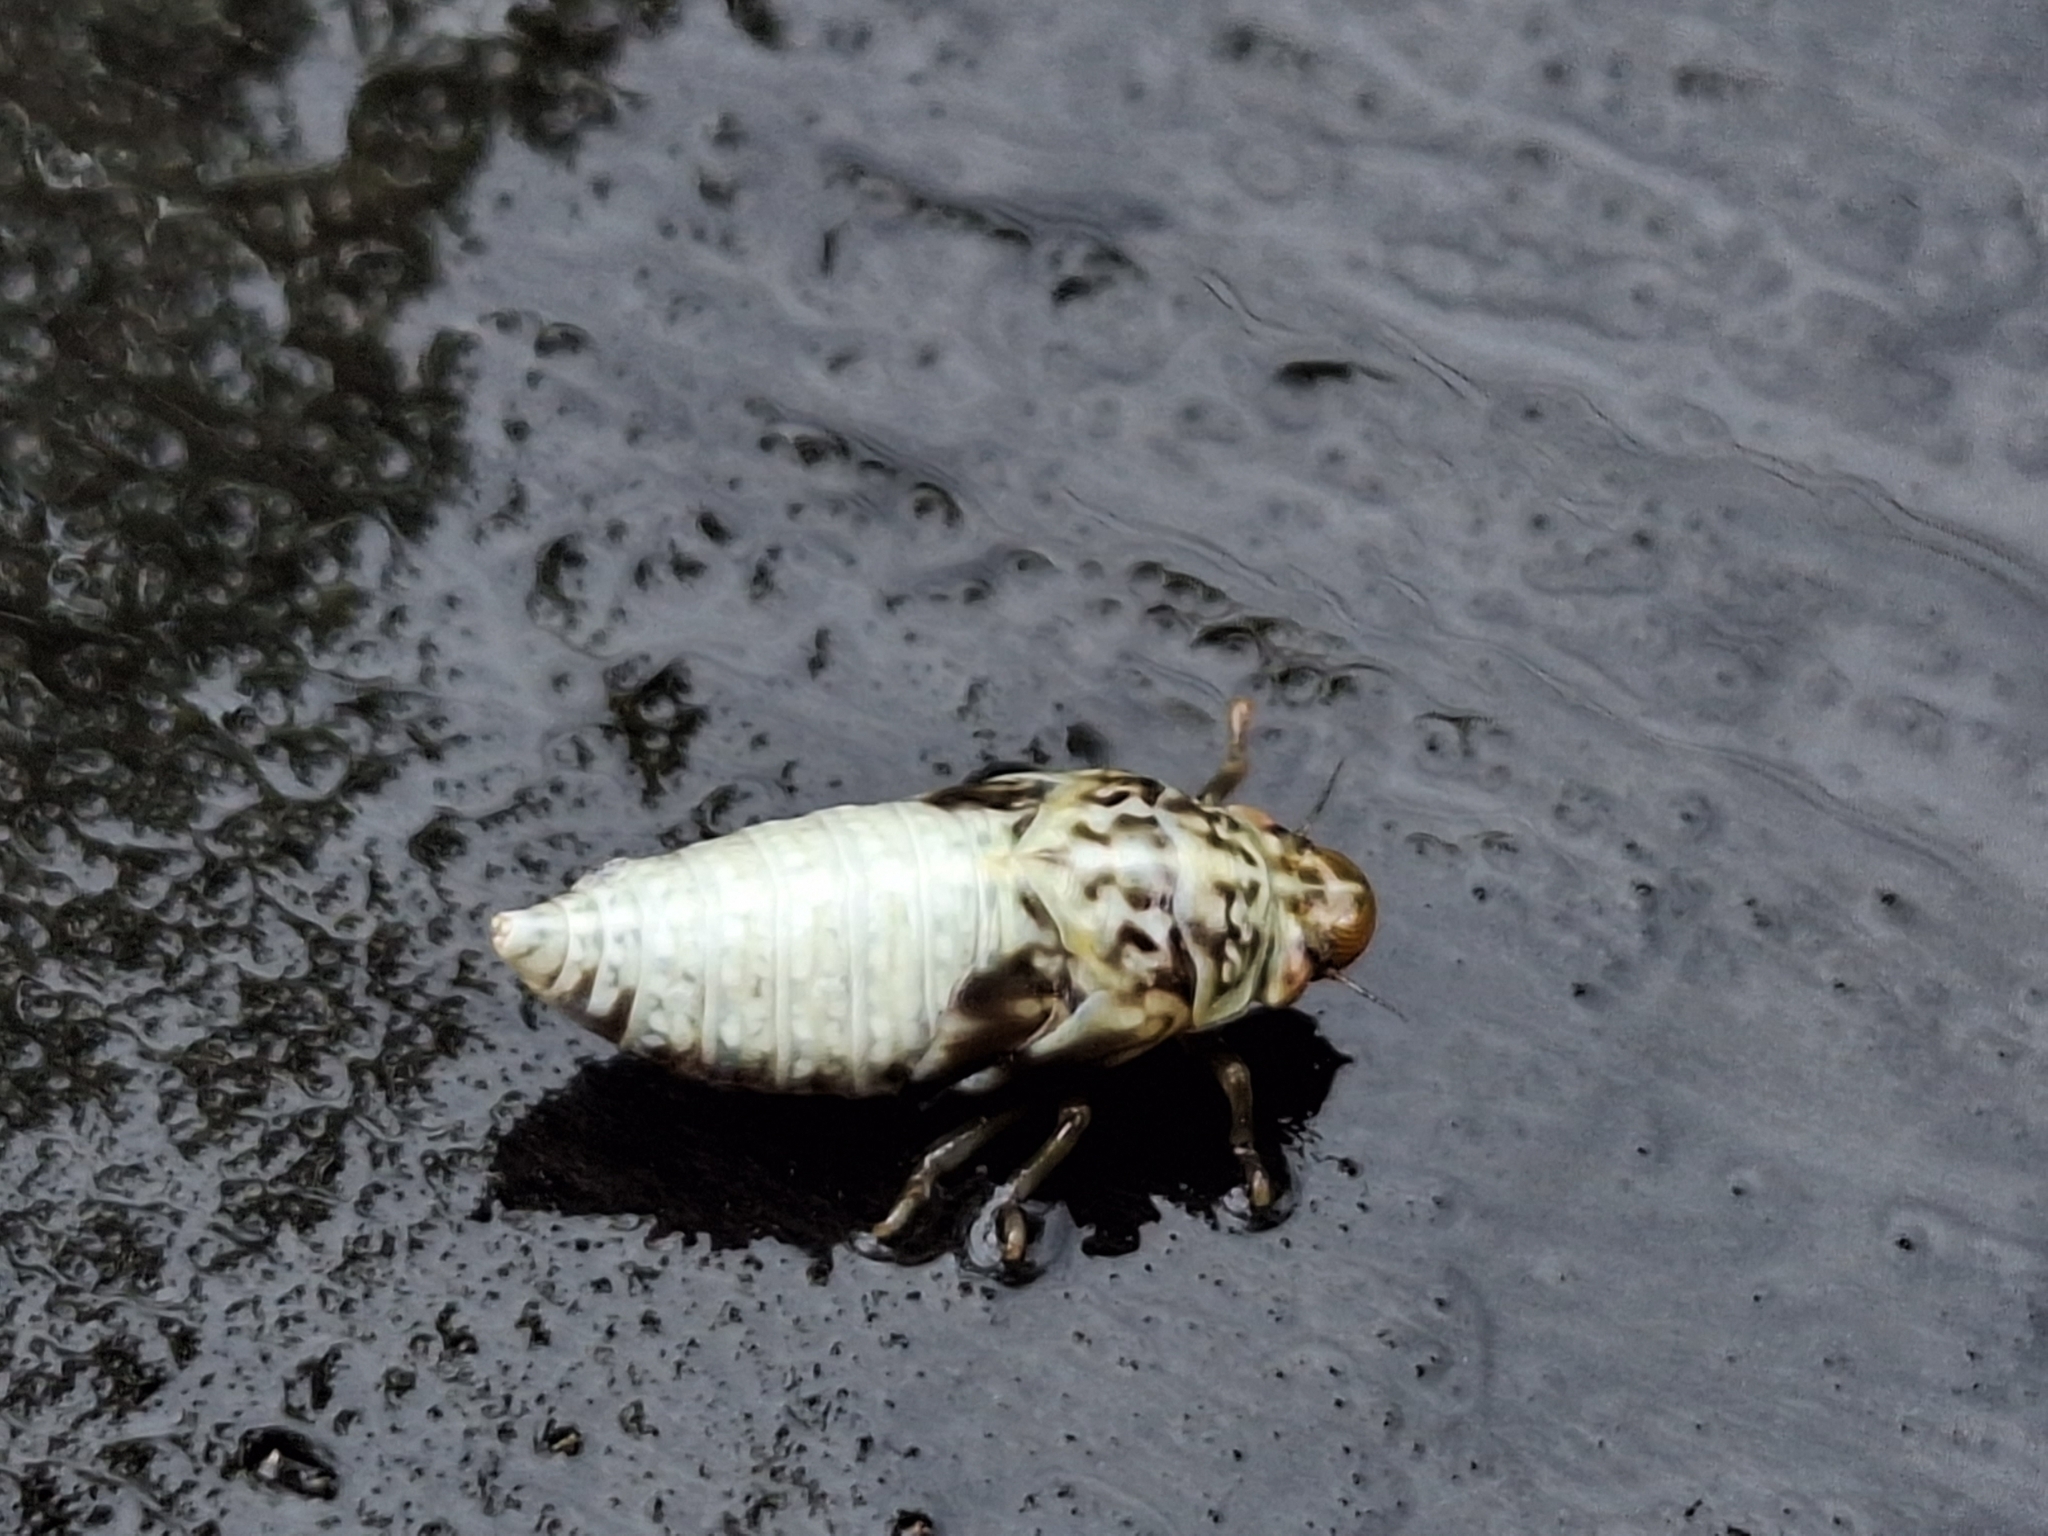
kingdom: Animalia
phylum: Arthropoda
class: Insecta
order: Hemiptera
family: Aphrophoridae
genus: Cephisus
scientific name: Cephisus siccifolius
